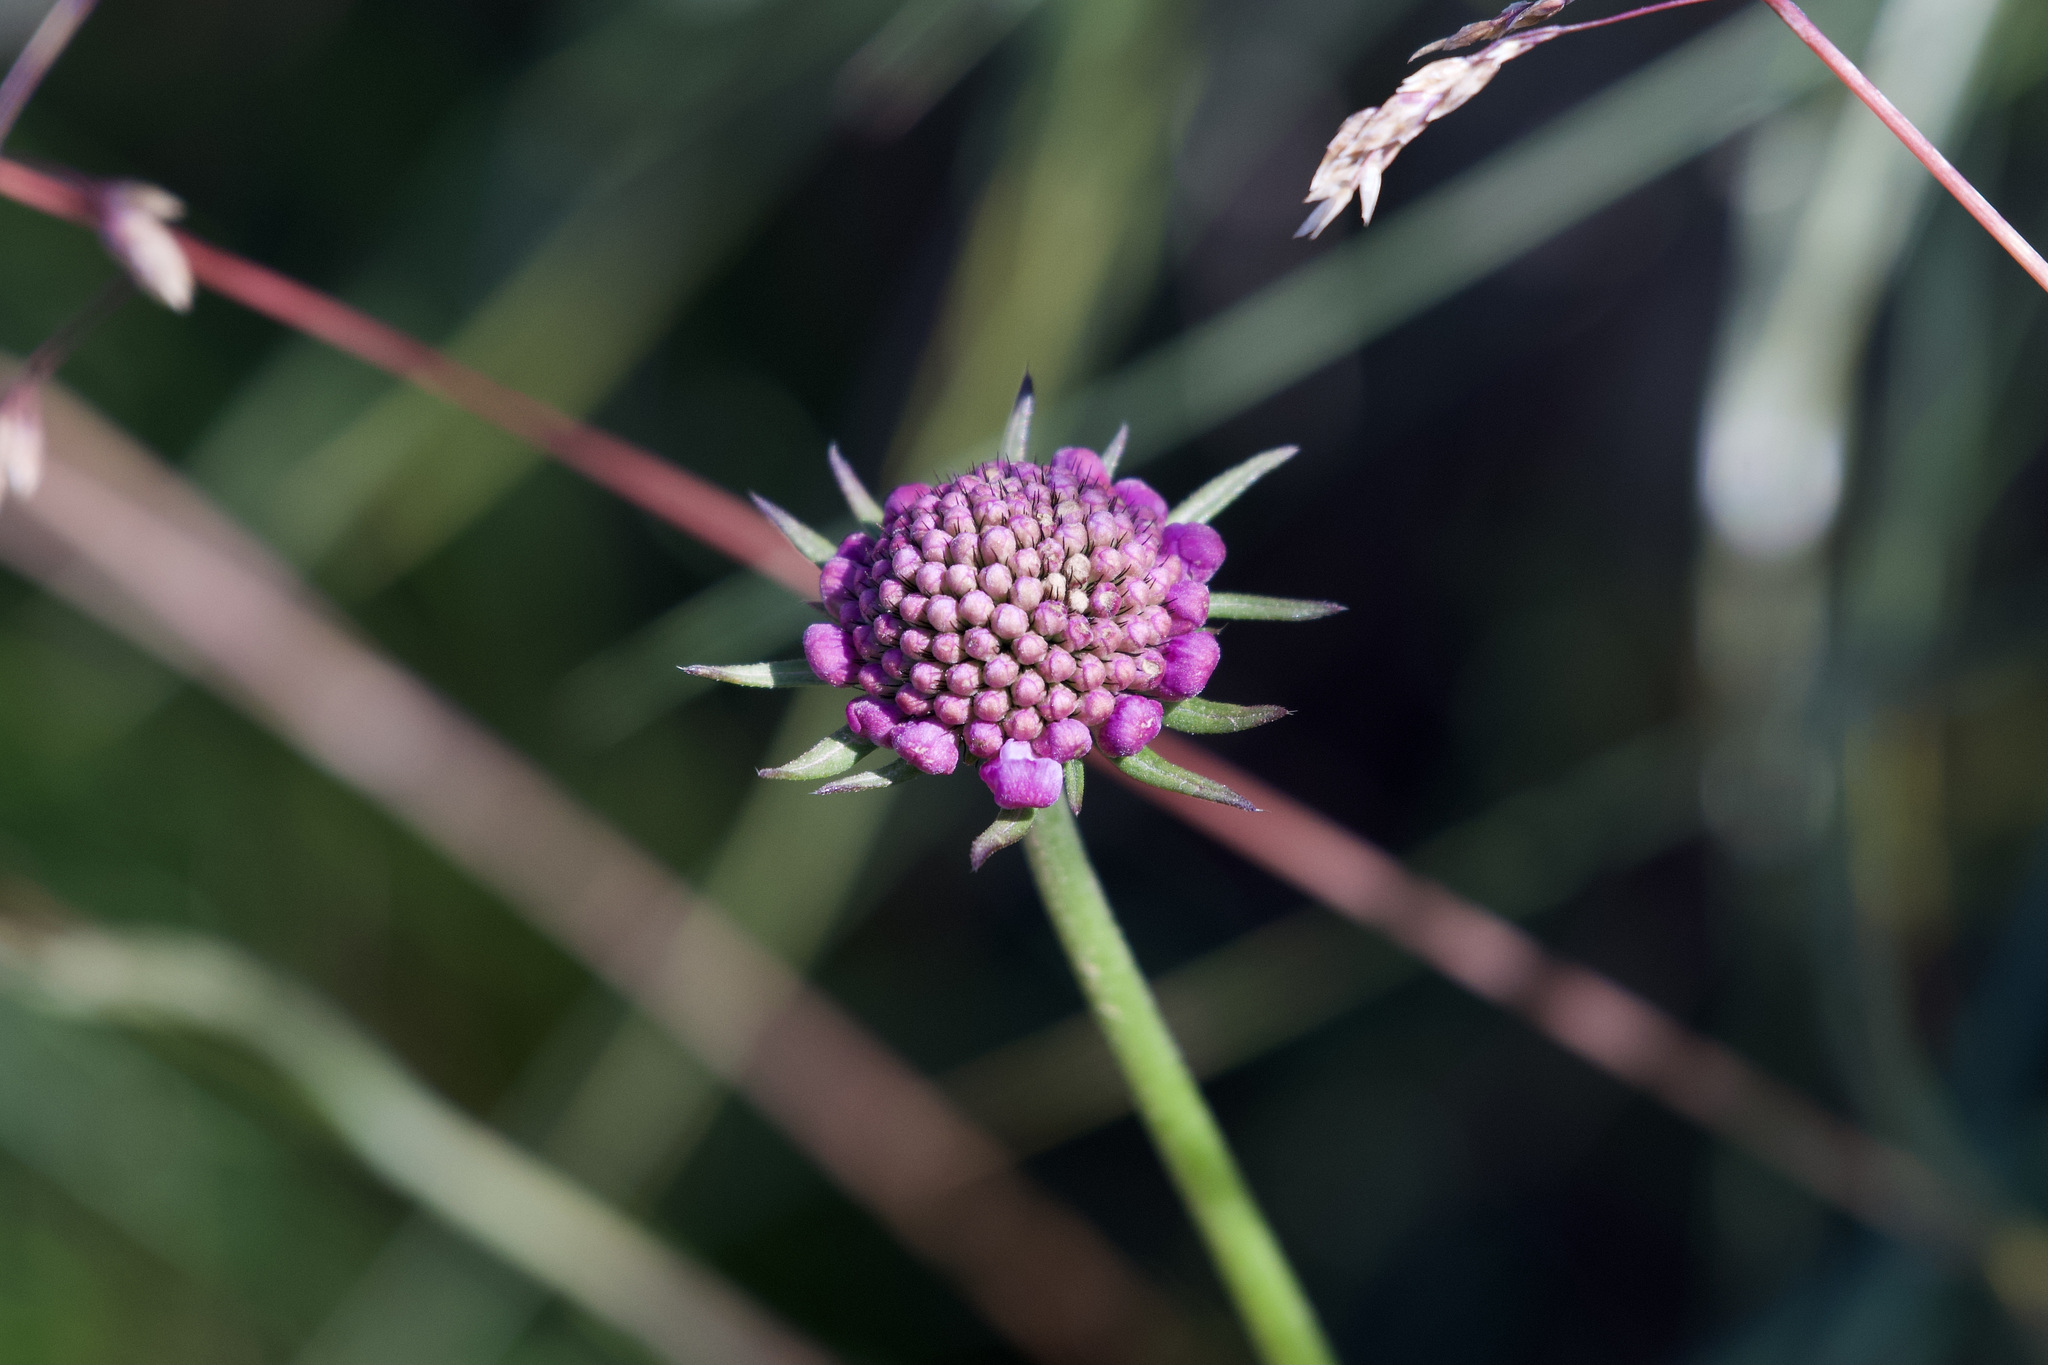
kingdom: Plantae
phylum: Tracheophyta
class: Magnoliopsida
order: Dipsacales
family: Caprifoliaceae
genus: Scabiosa
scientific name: Scabiosa lucida
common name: Shining scabious
